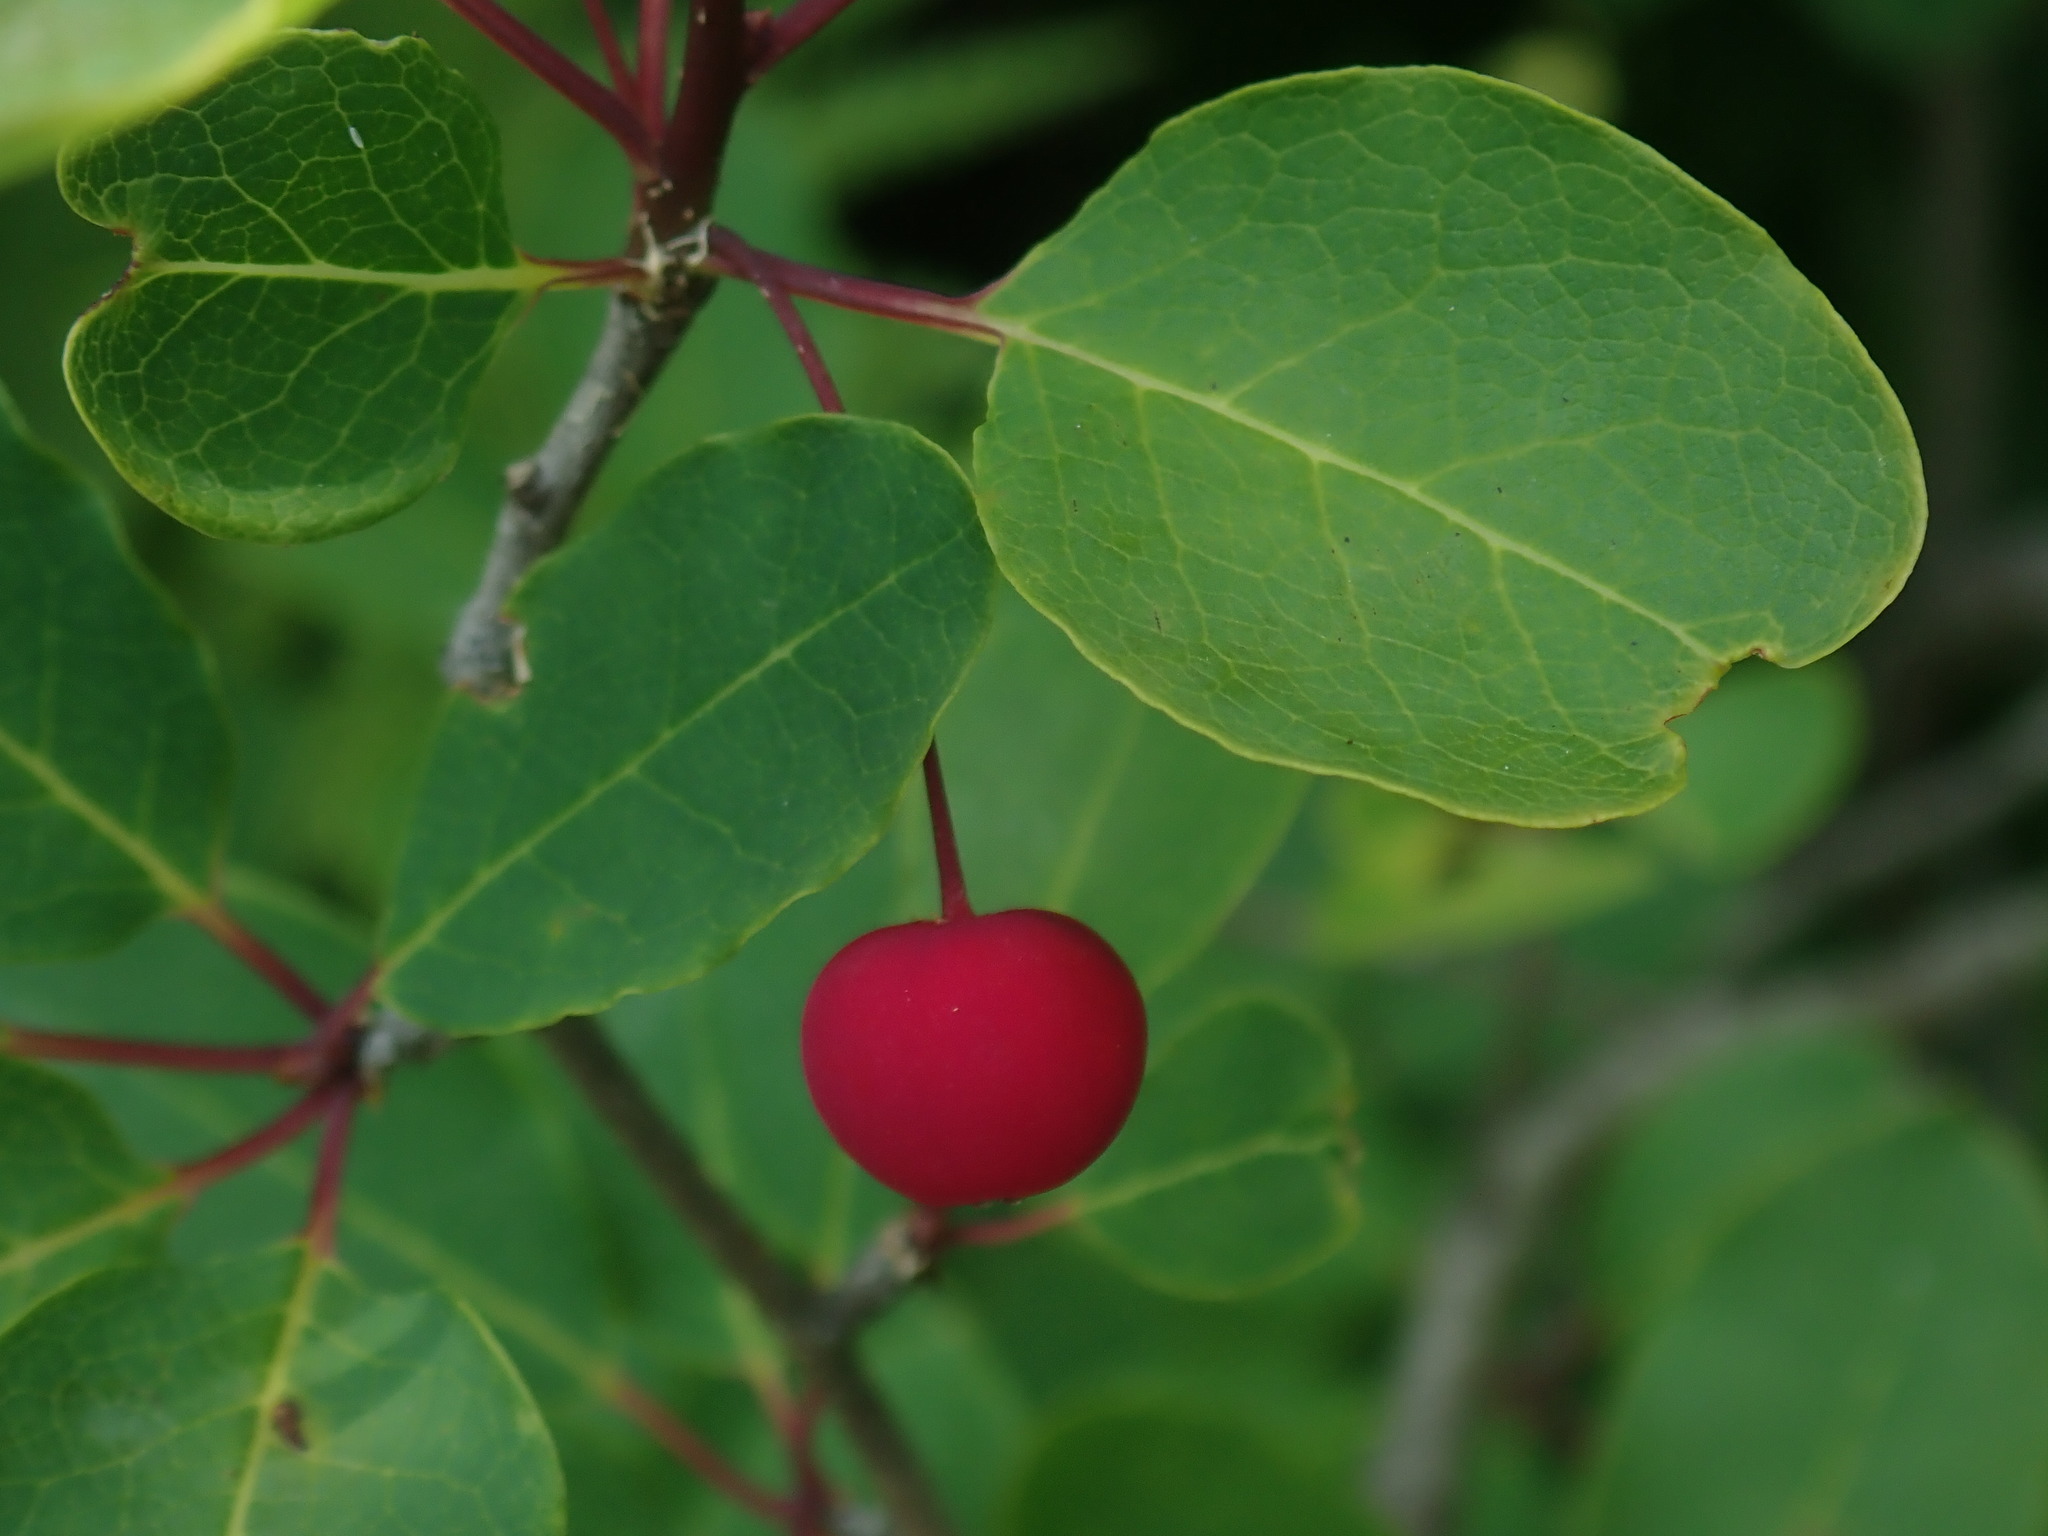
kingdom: Plantae
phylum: Tracheophyta
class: Magnoliopsida
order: Aquifoliales
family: Aquifoliaceae
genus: Ilex
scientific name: Ilex mucronata
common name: Catberry
